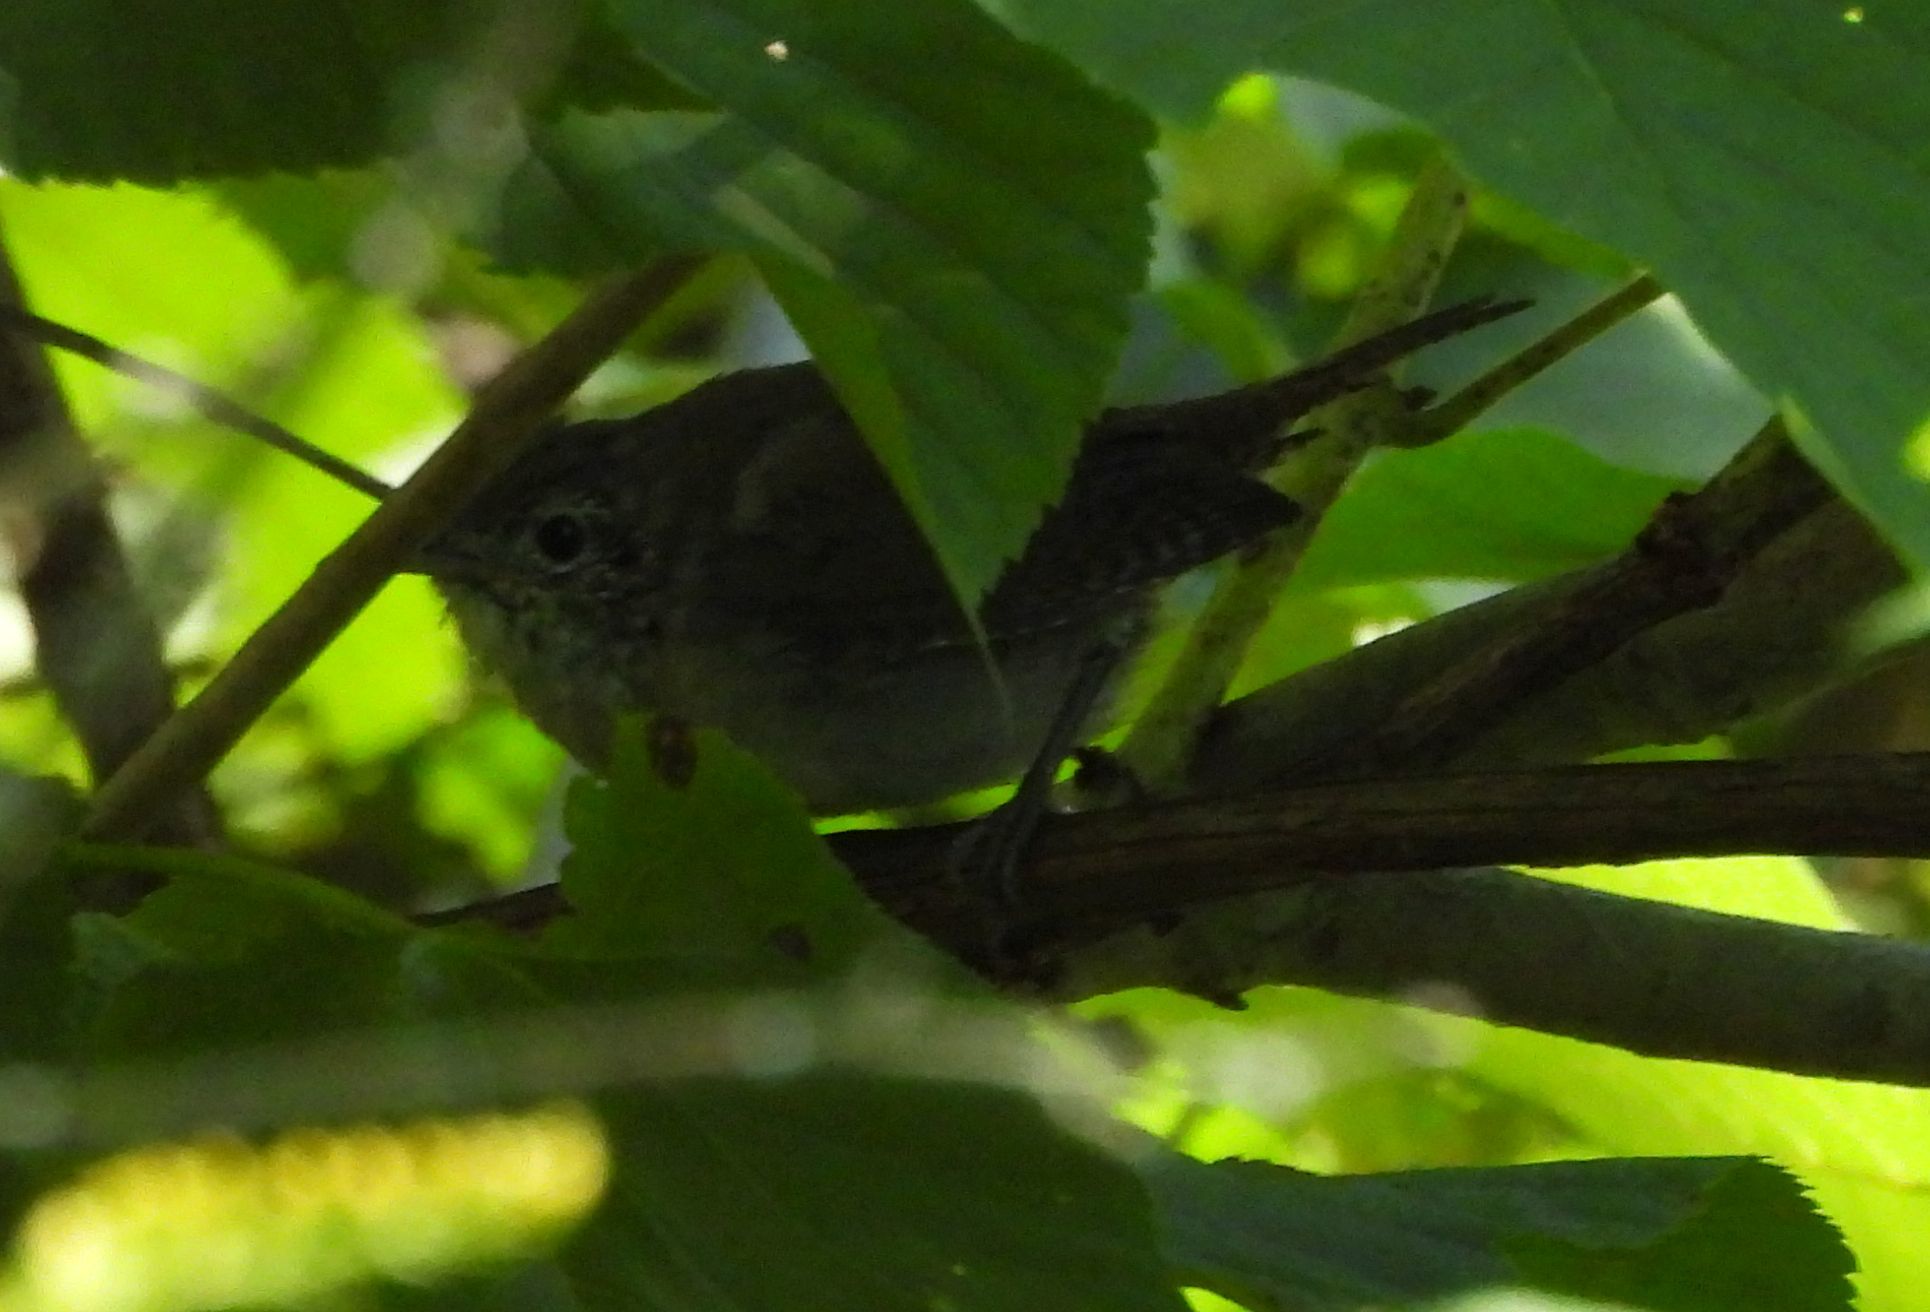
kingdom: Animalia
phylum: Chordata
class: Aves
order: Passeriformes
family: Troglodytidae
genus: Troglodytes
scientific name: Troglodytes aedon
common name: House wren
